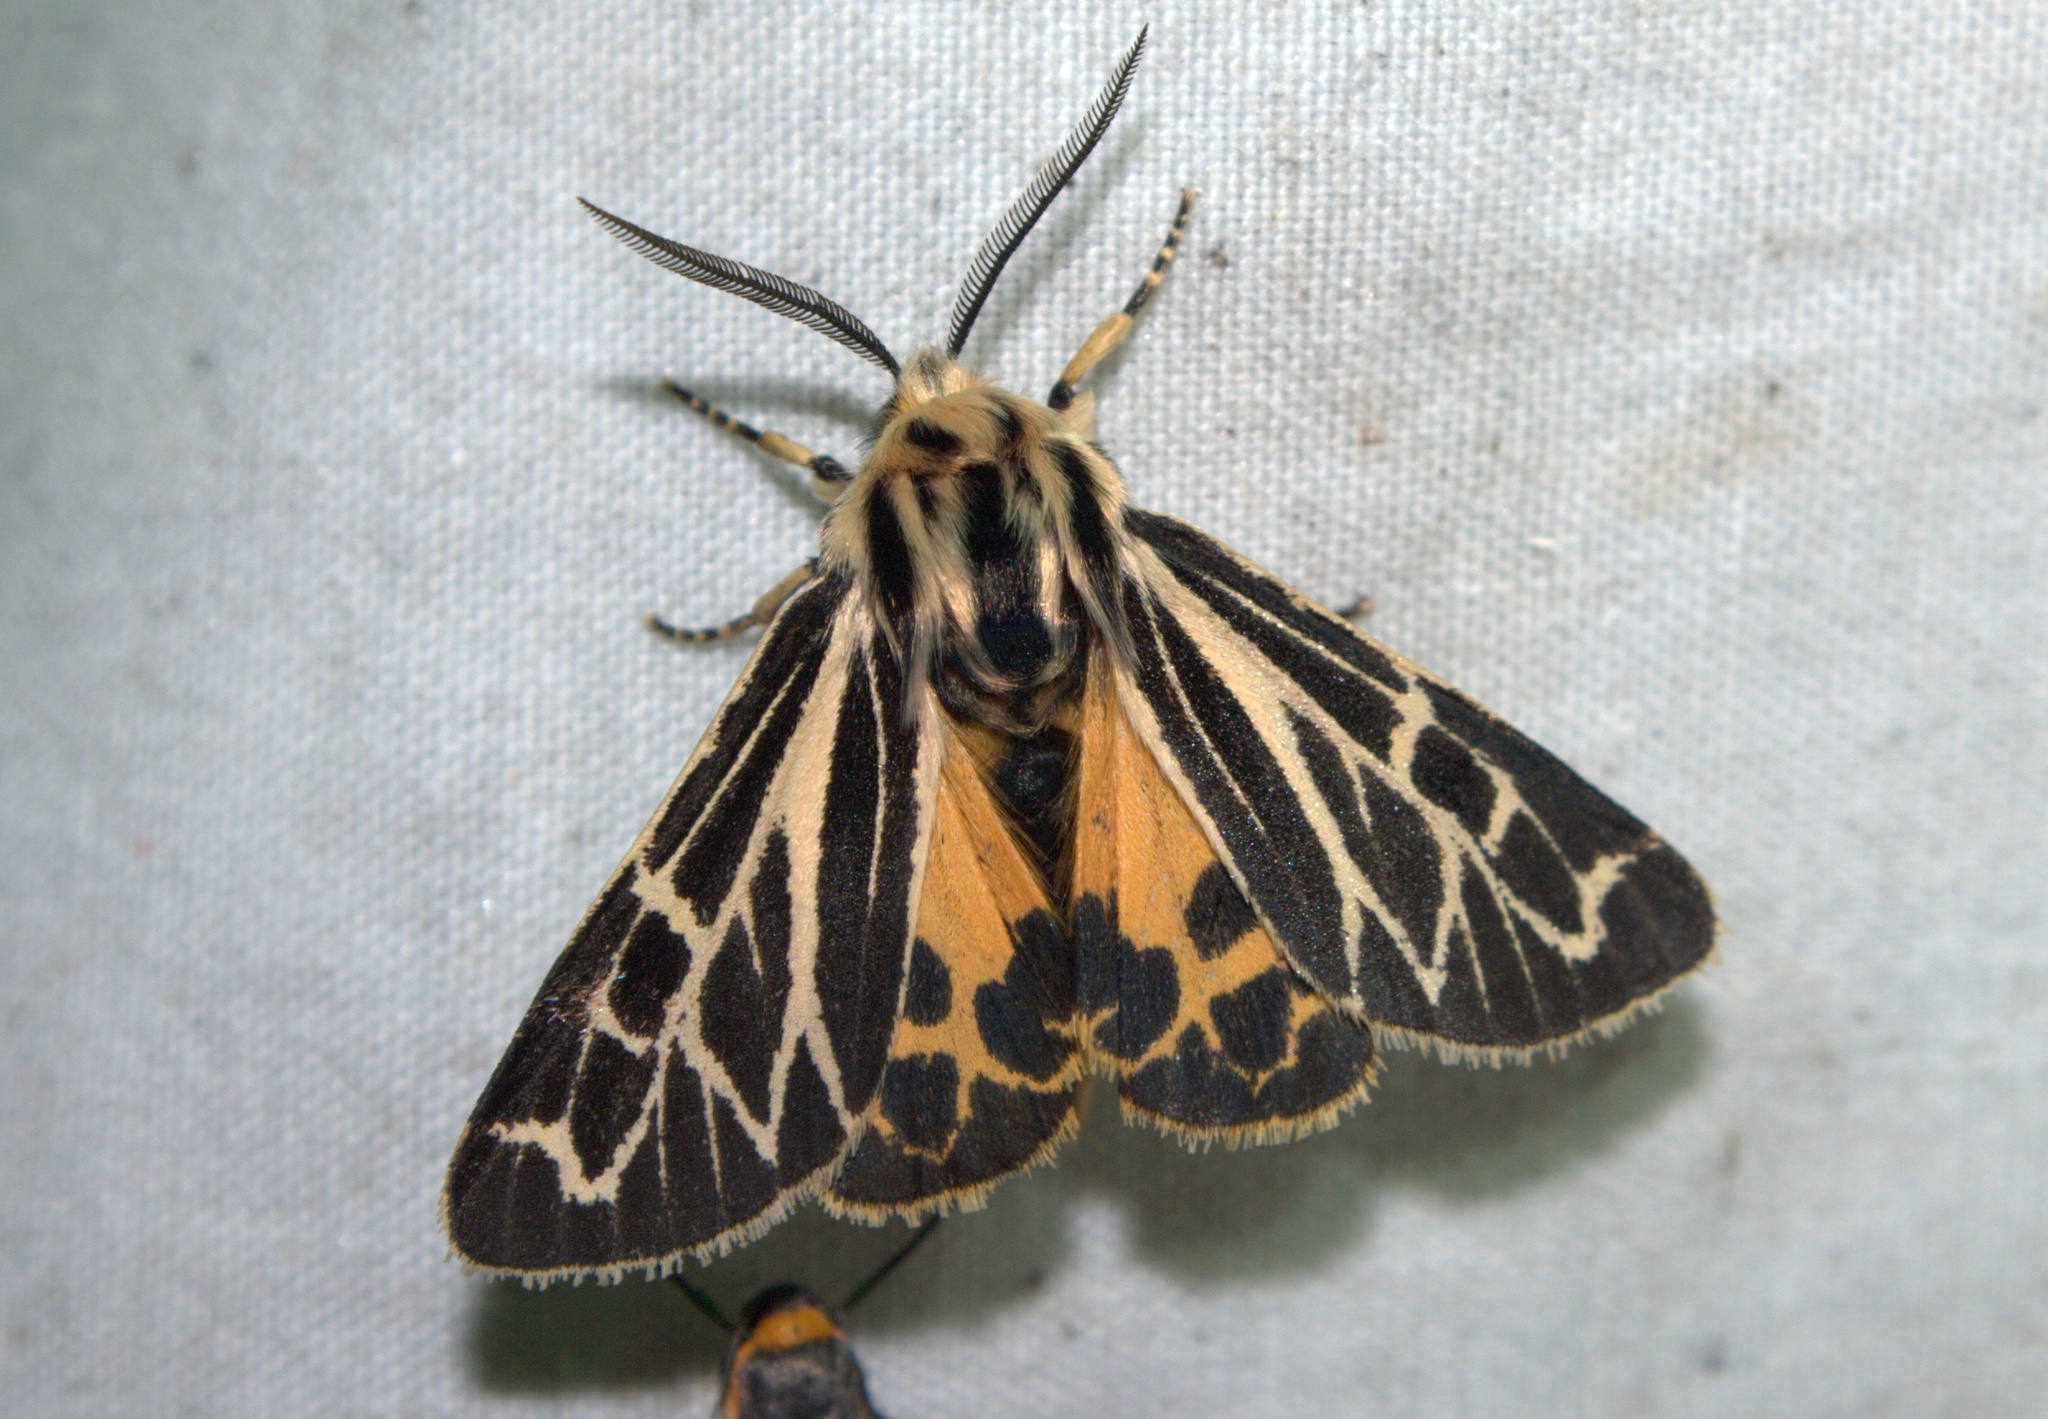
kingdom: Animalia
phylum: Arthropoda
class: Insecta
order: Lepidoptera
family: Erebidae
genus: Apantesis
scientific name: Apantesis obliterata
